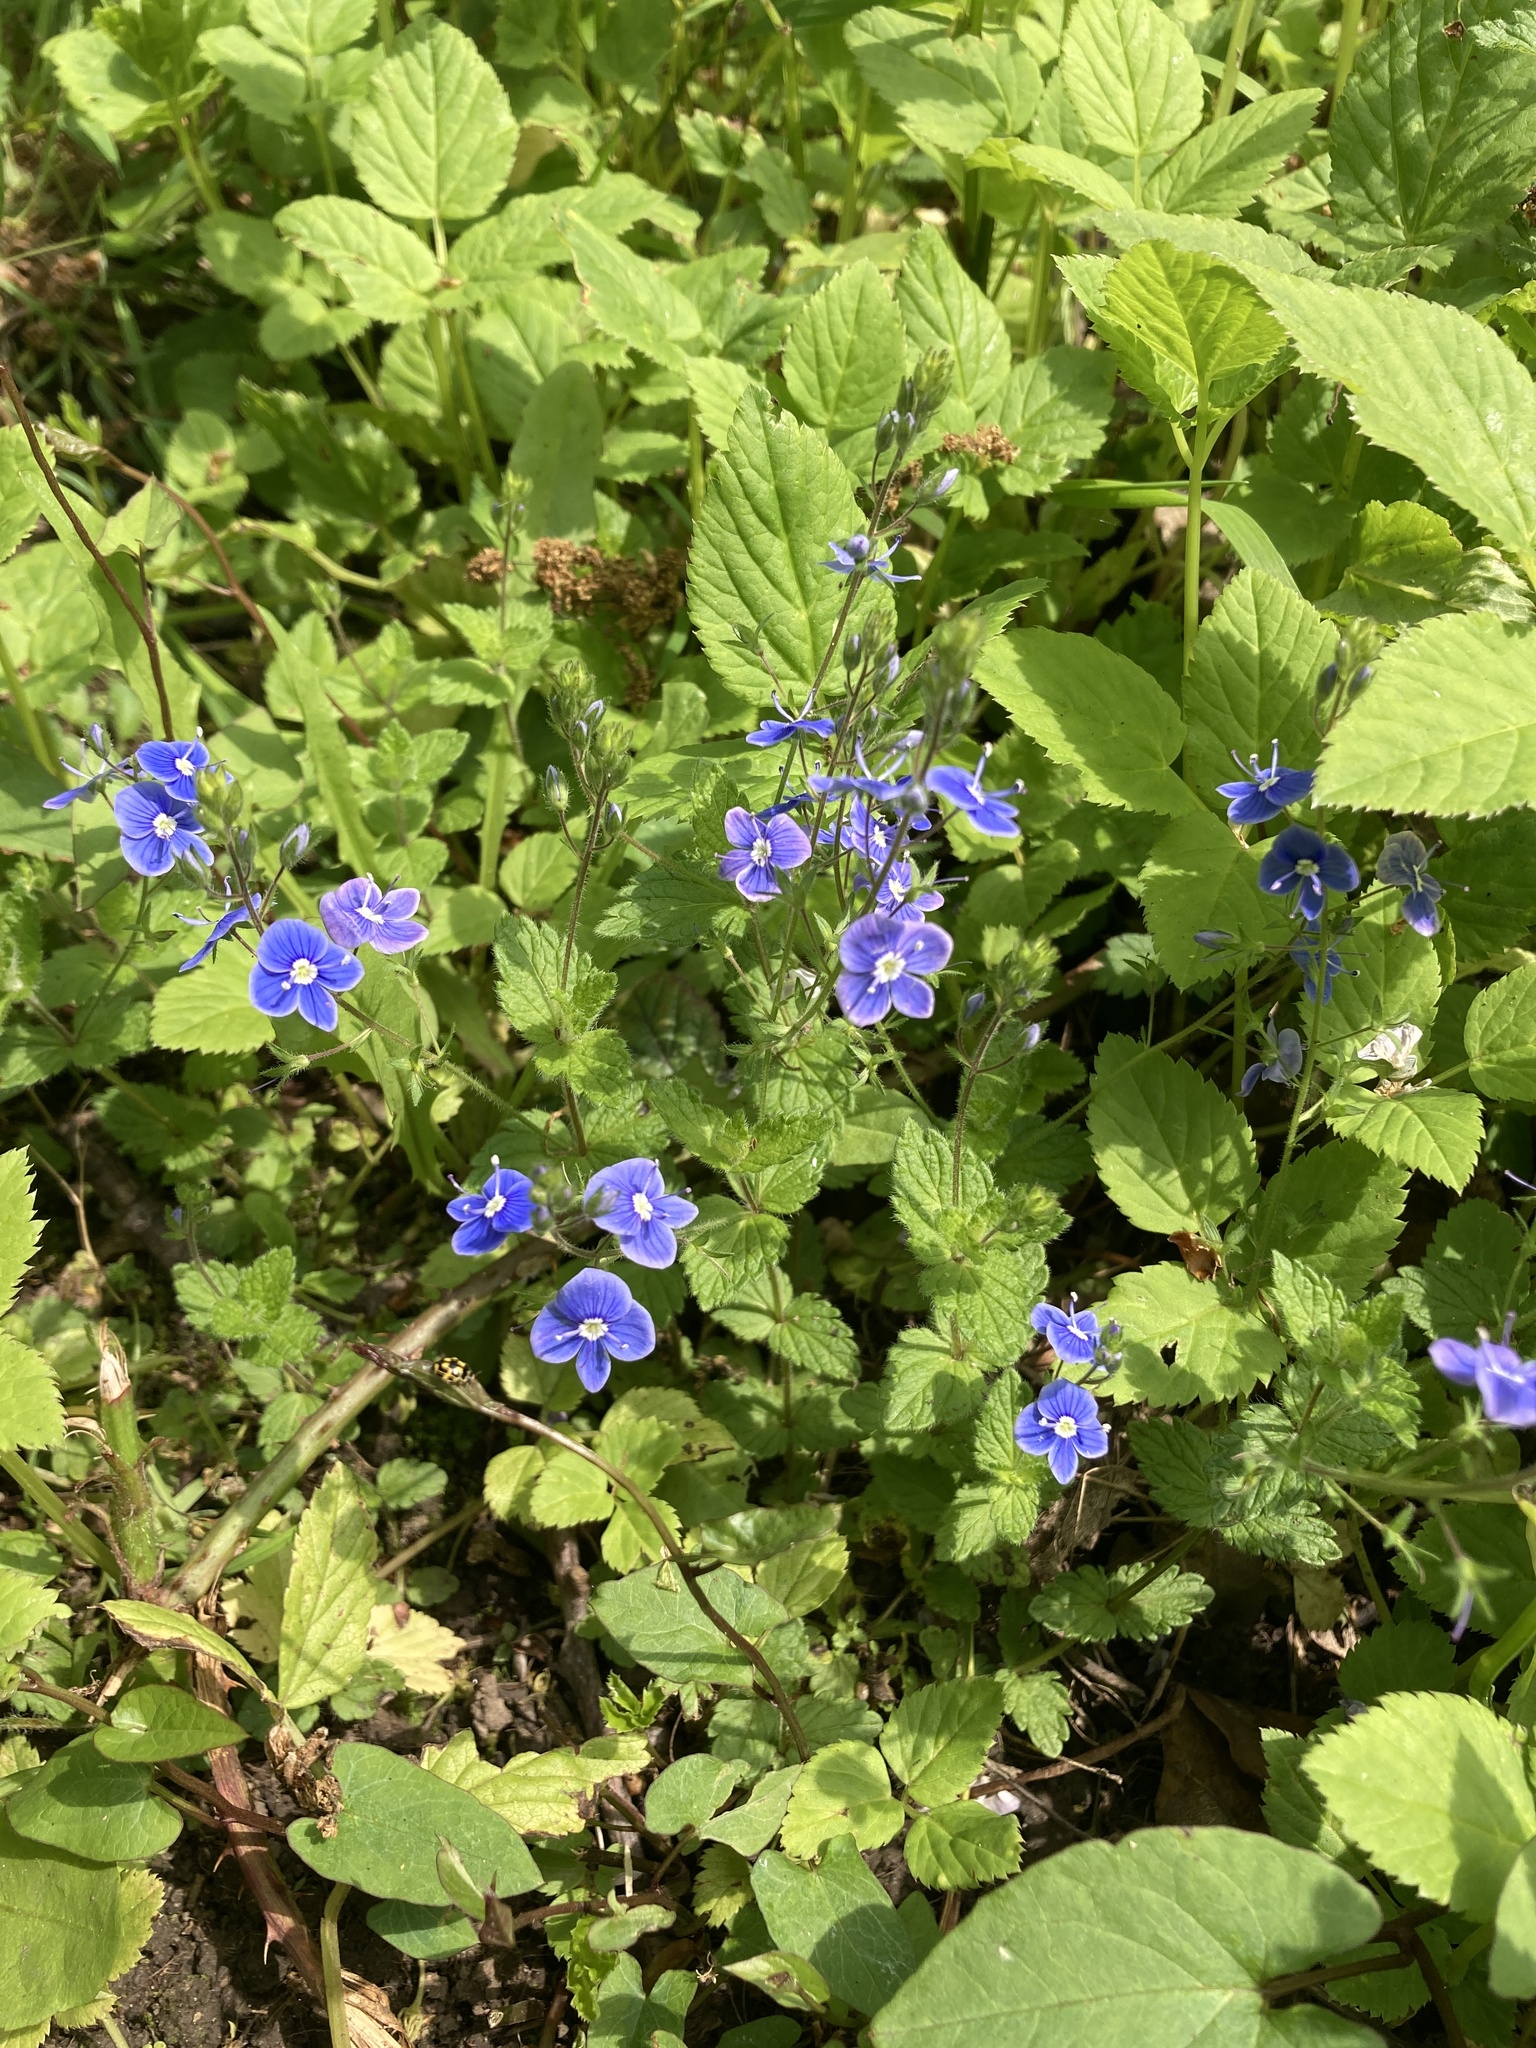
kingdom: Plantae
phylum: Tracheophyta
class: Magnoliopsida
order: Lamiales
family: Plantaginaceae
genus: Veronica
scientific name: Veronica chamaedrys
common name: Germander speedwell
